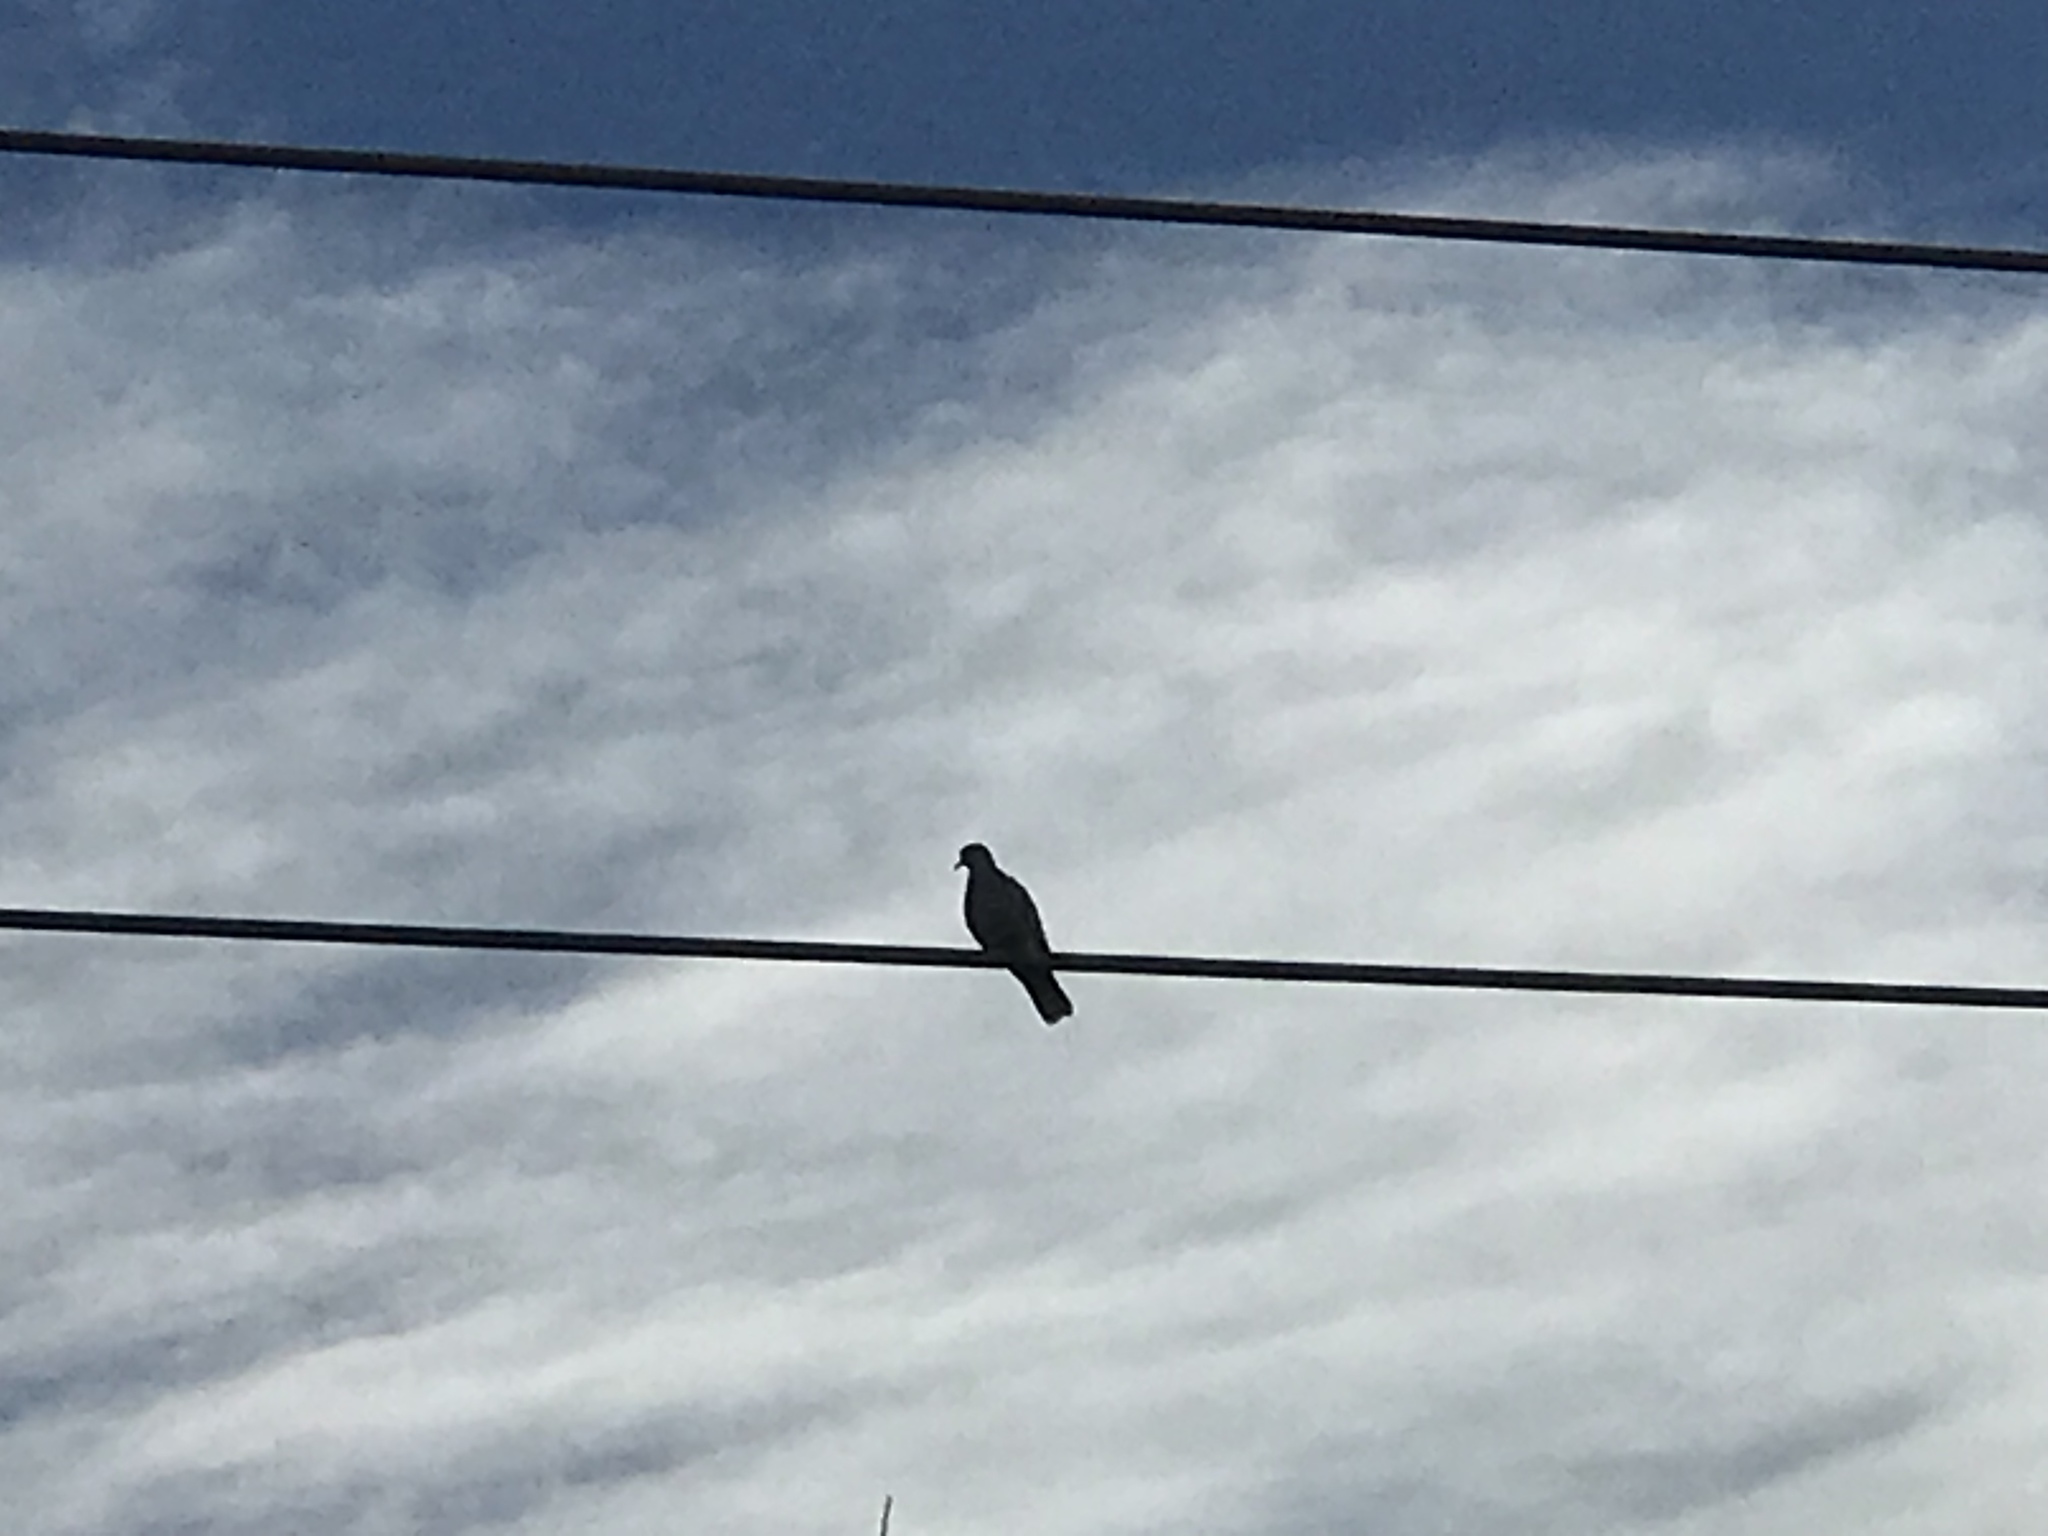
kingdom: Animalia
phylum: Chordata
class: Aves
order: Columbiformes
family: Columbidae
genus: Streptopelia
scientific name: Streptopelia decaocto
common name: Eurasian collared dove
